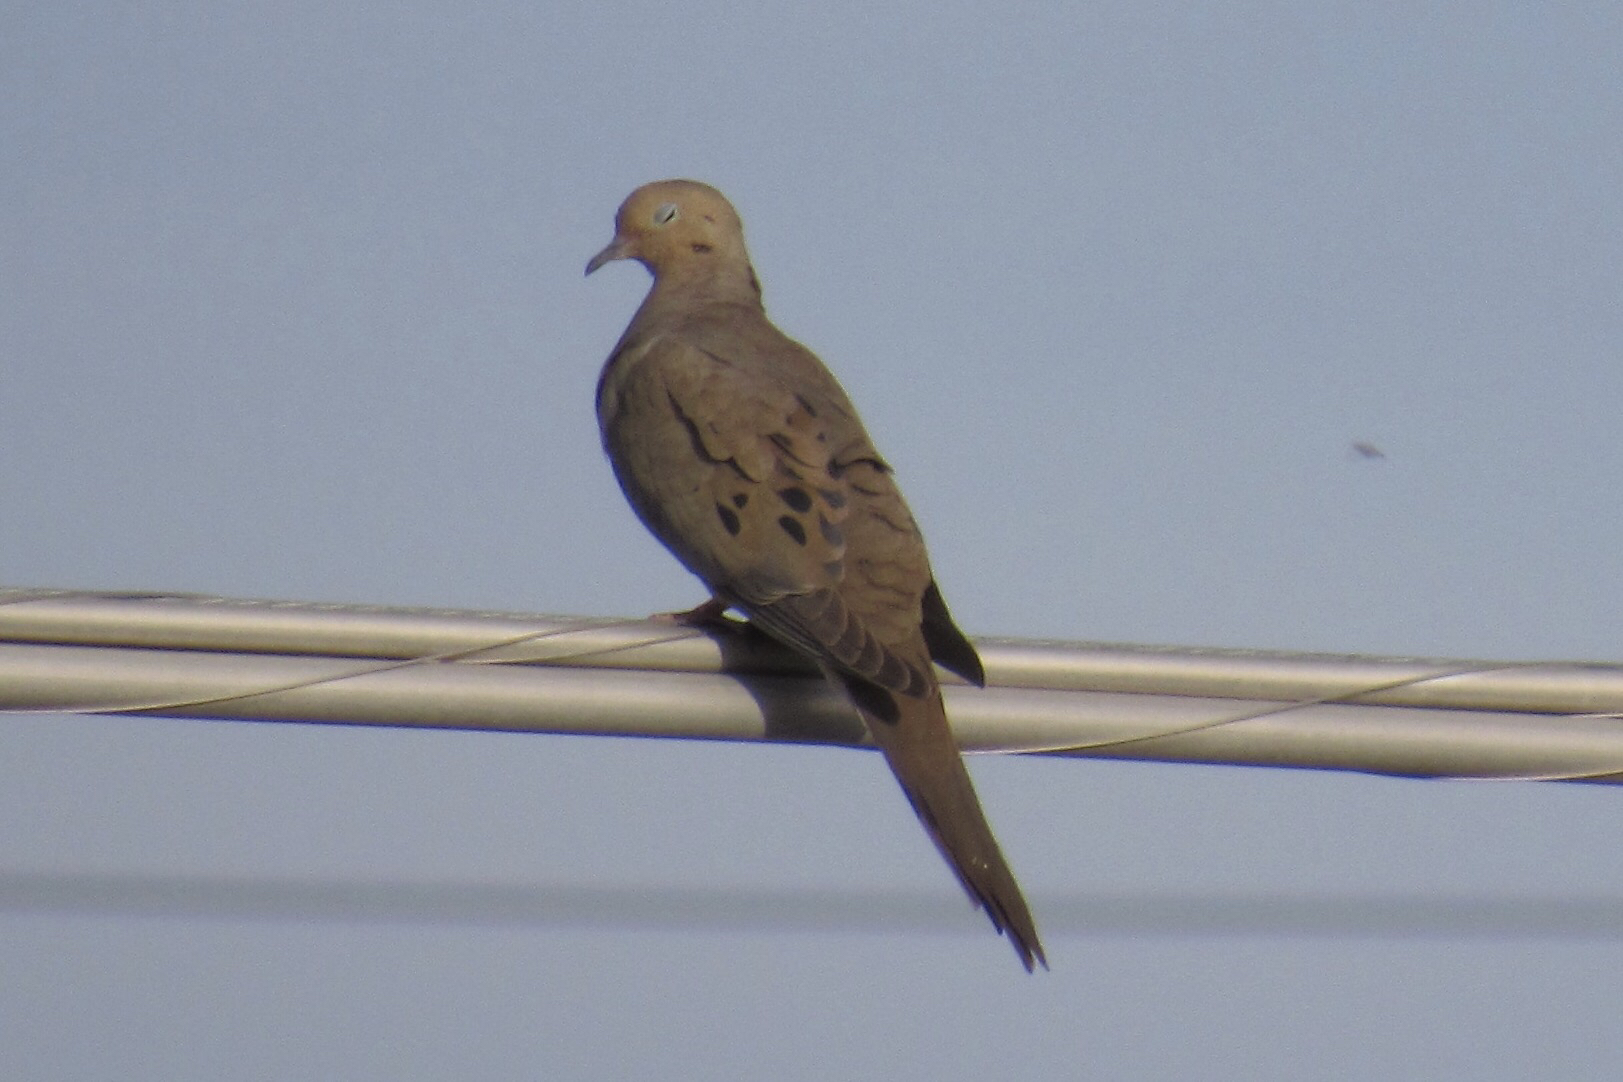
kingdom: Animalia
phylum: Chordata
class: Aves
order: Columbiformes
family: Columbidae
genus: Zenaida
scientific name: Zenaida macroura
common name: Mourning dove
